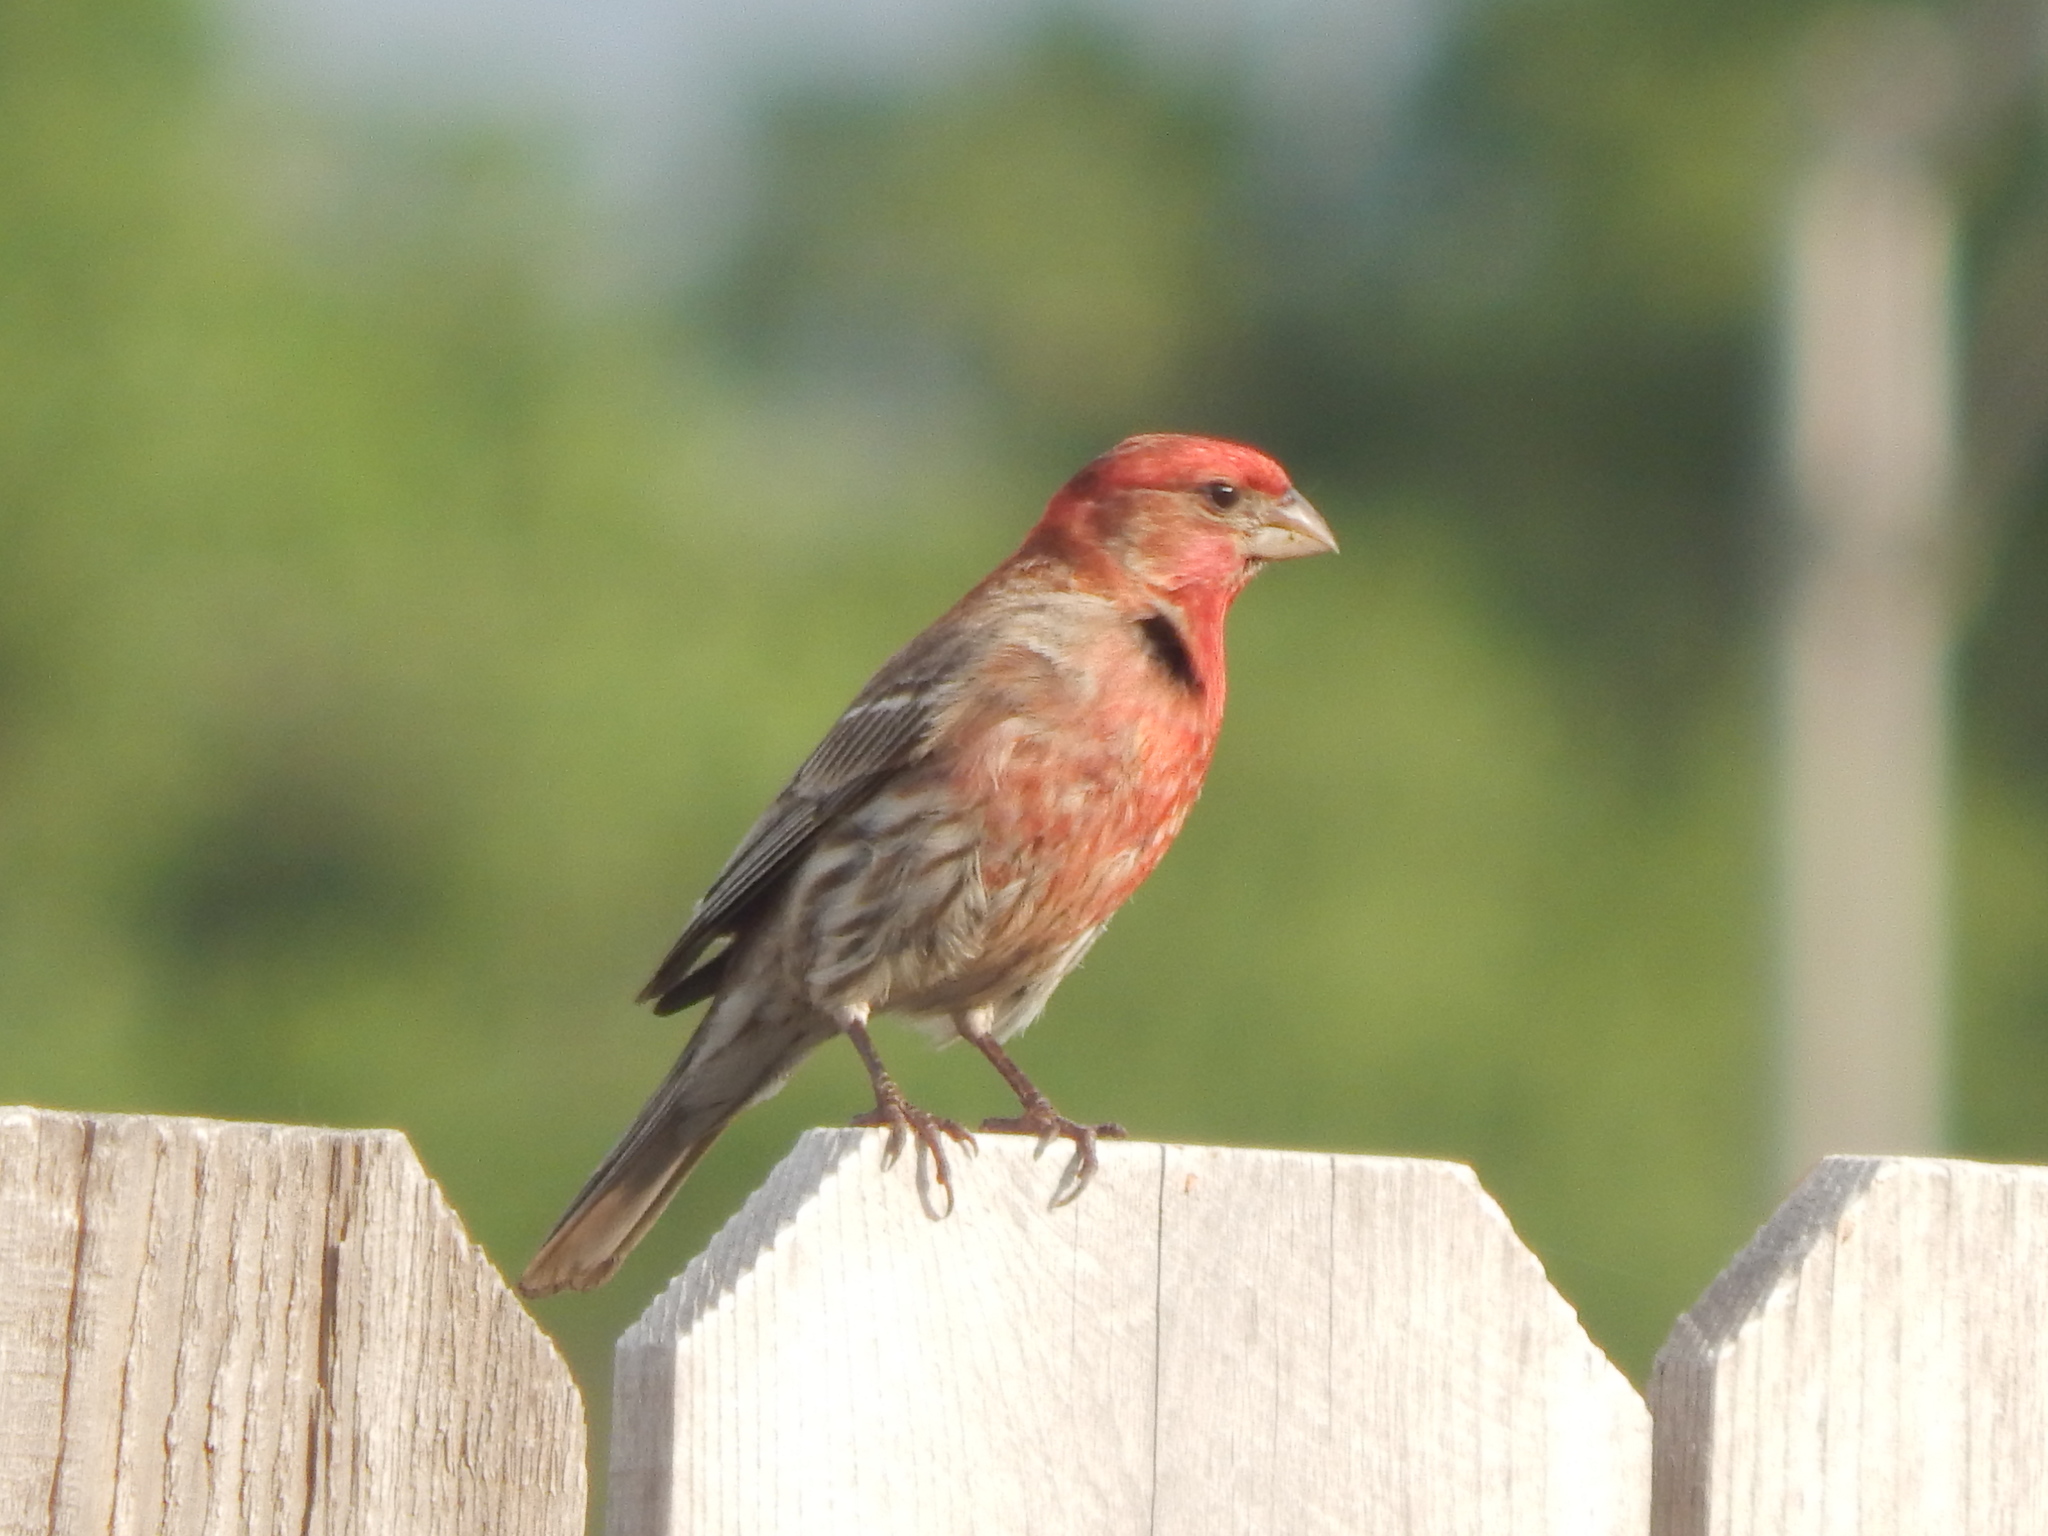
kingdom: Animalia
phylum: Chordata
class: Aves
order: Passeriformes
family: Fringillidae
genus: Haemorhous
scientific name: Haemorhous mexicanus
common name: House finch
